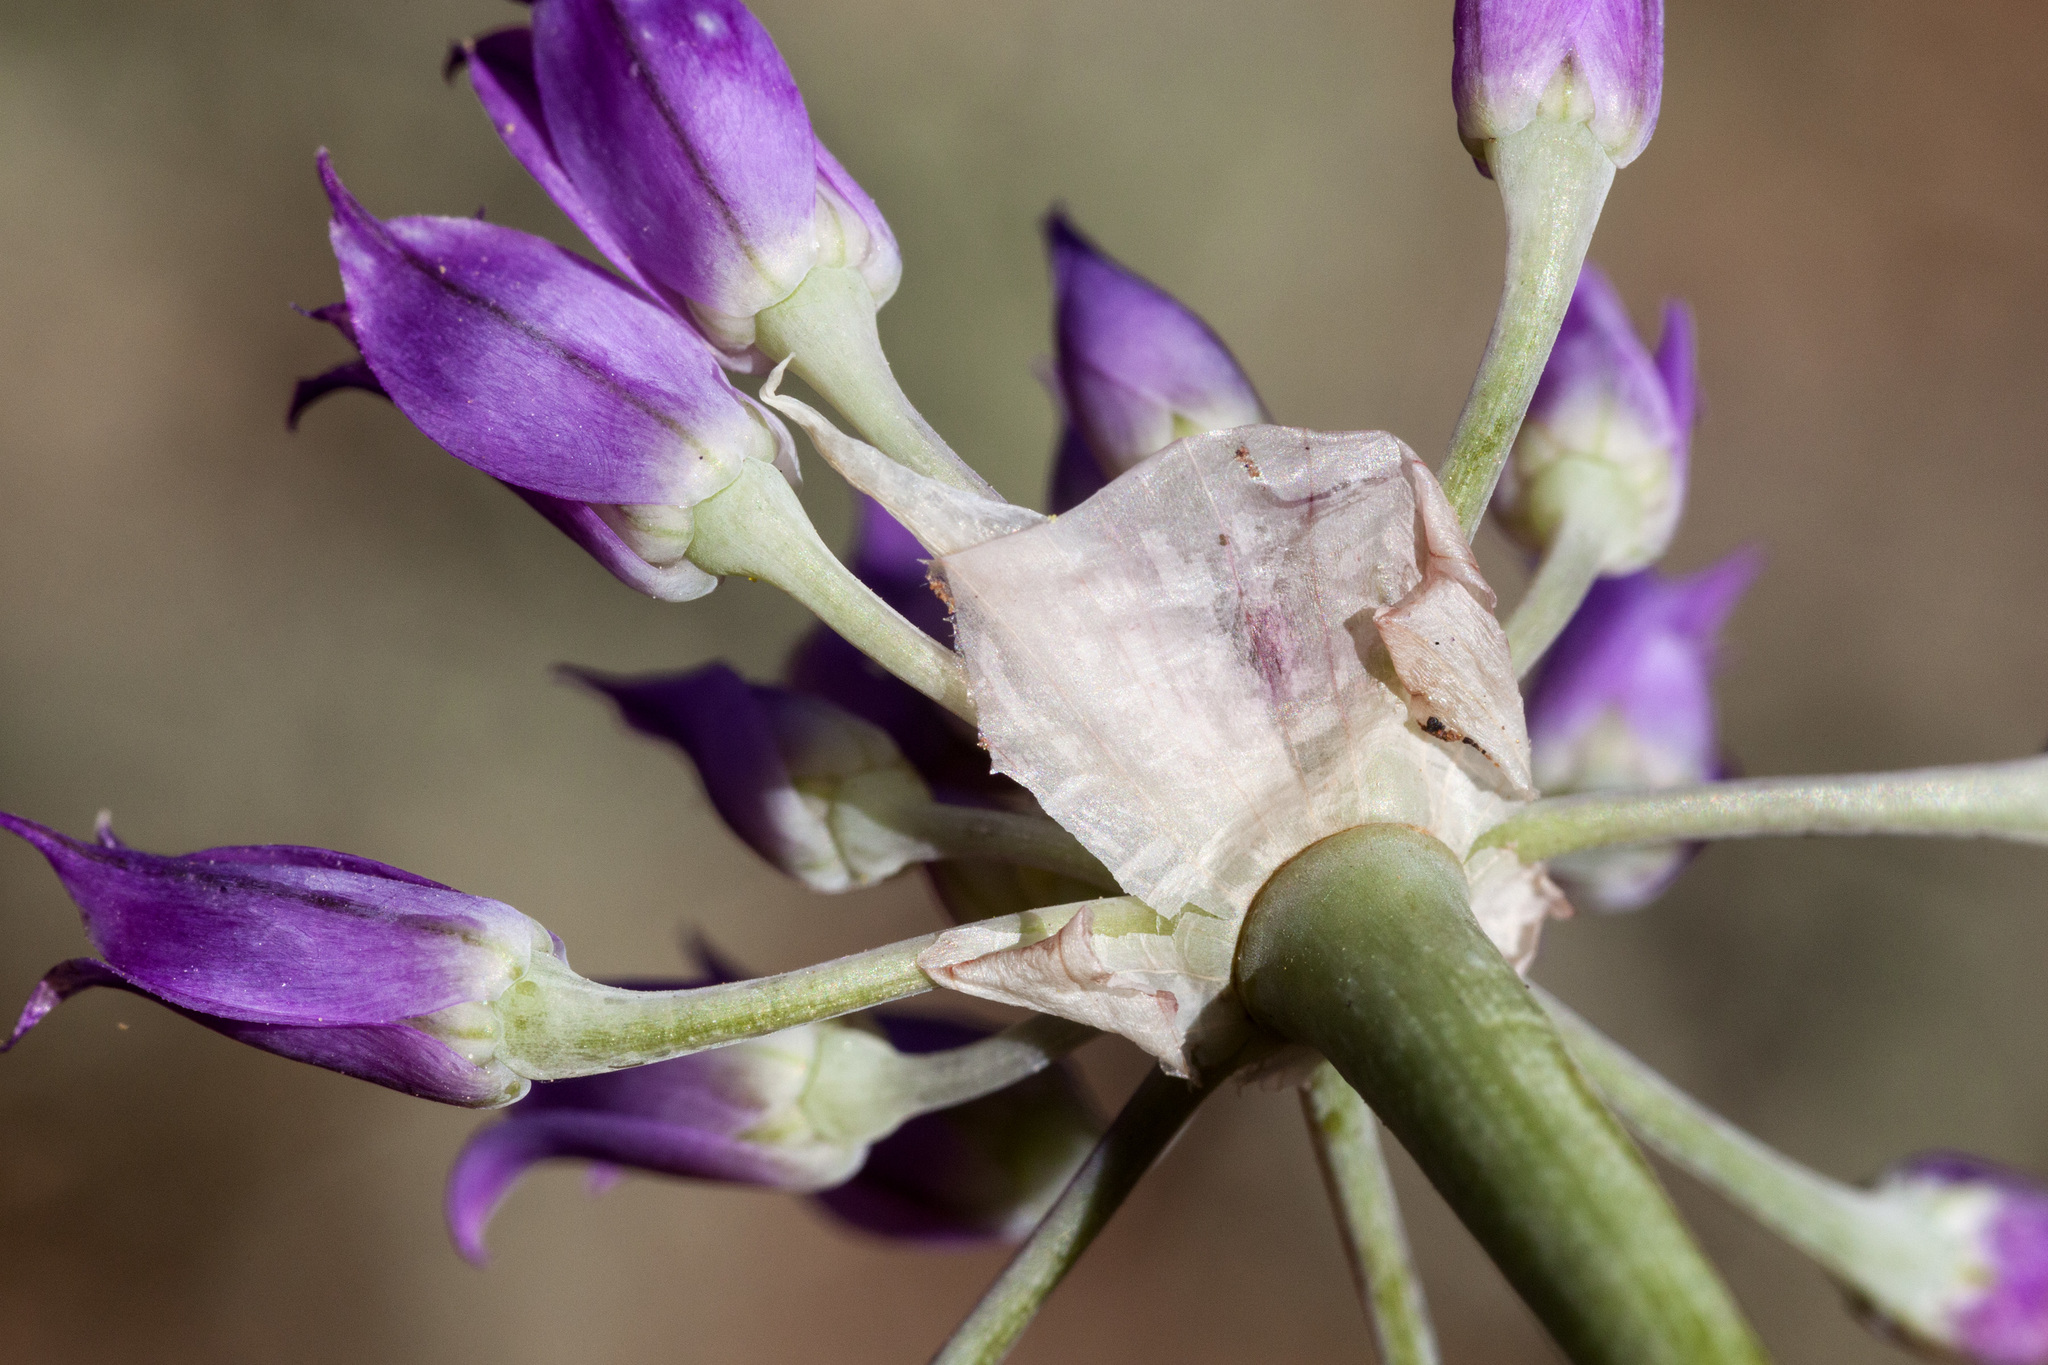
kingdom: Plantae
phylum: Tracheophyta
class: Liliopsida
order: Asparagales
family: Amaryllidaceae
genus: Allium
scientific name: Allium acuminatum
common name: Hooker's onion
